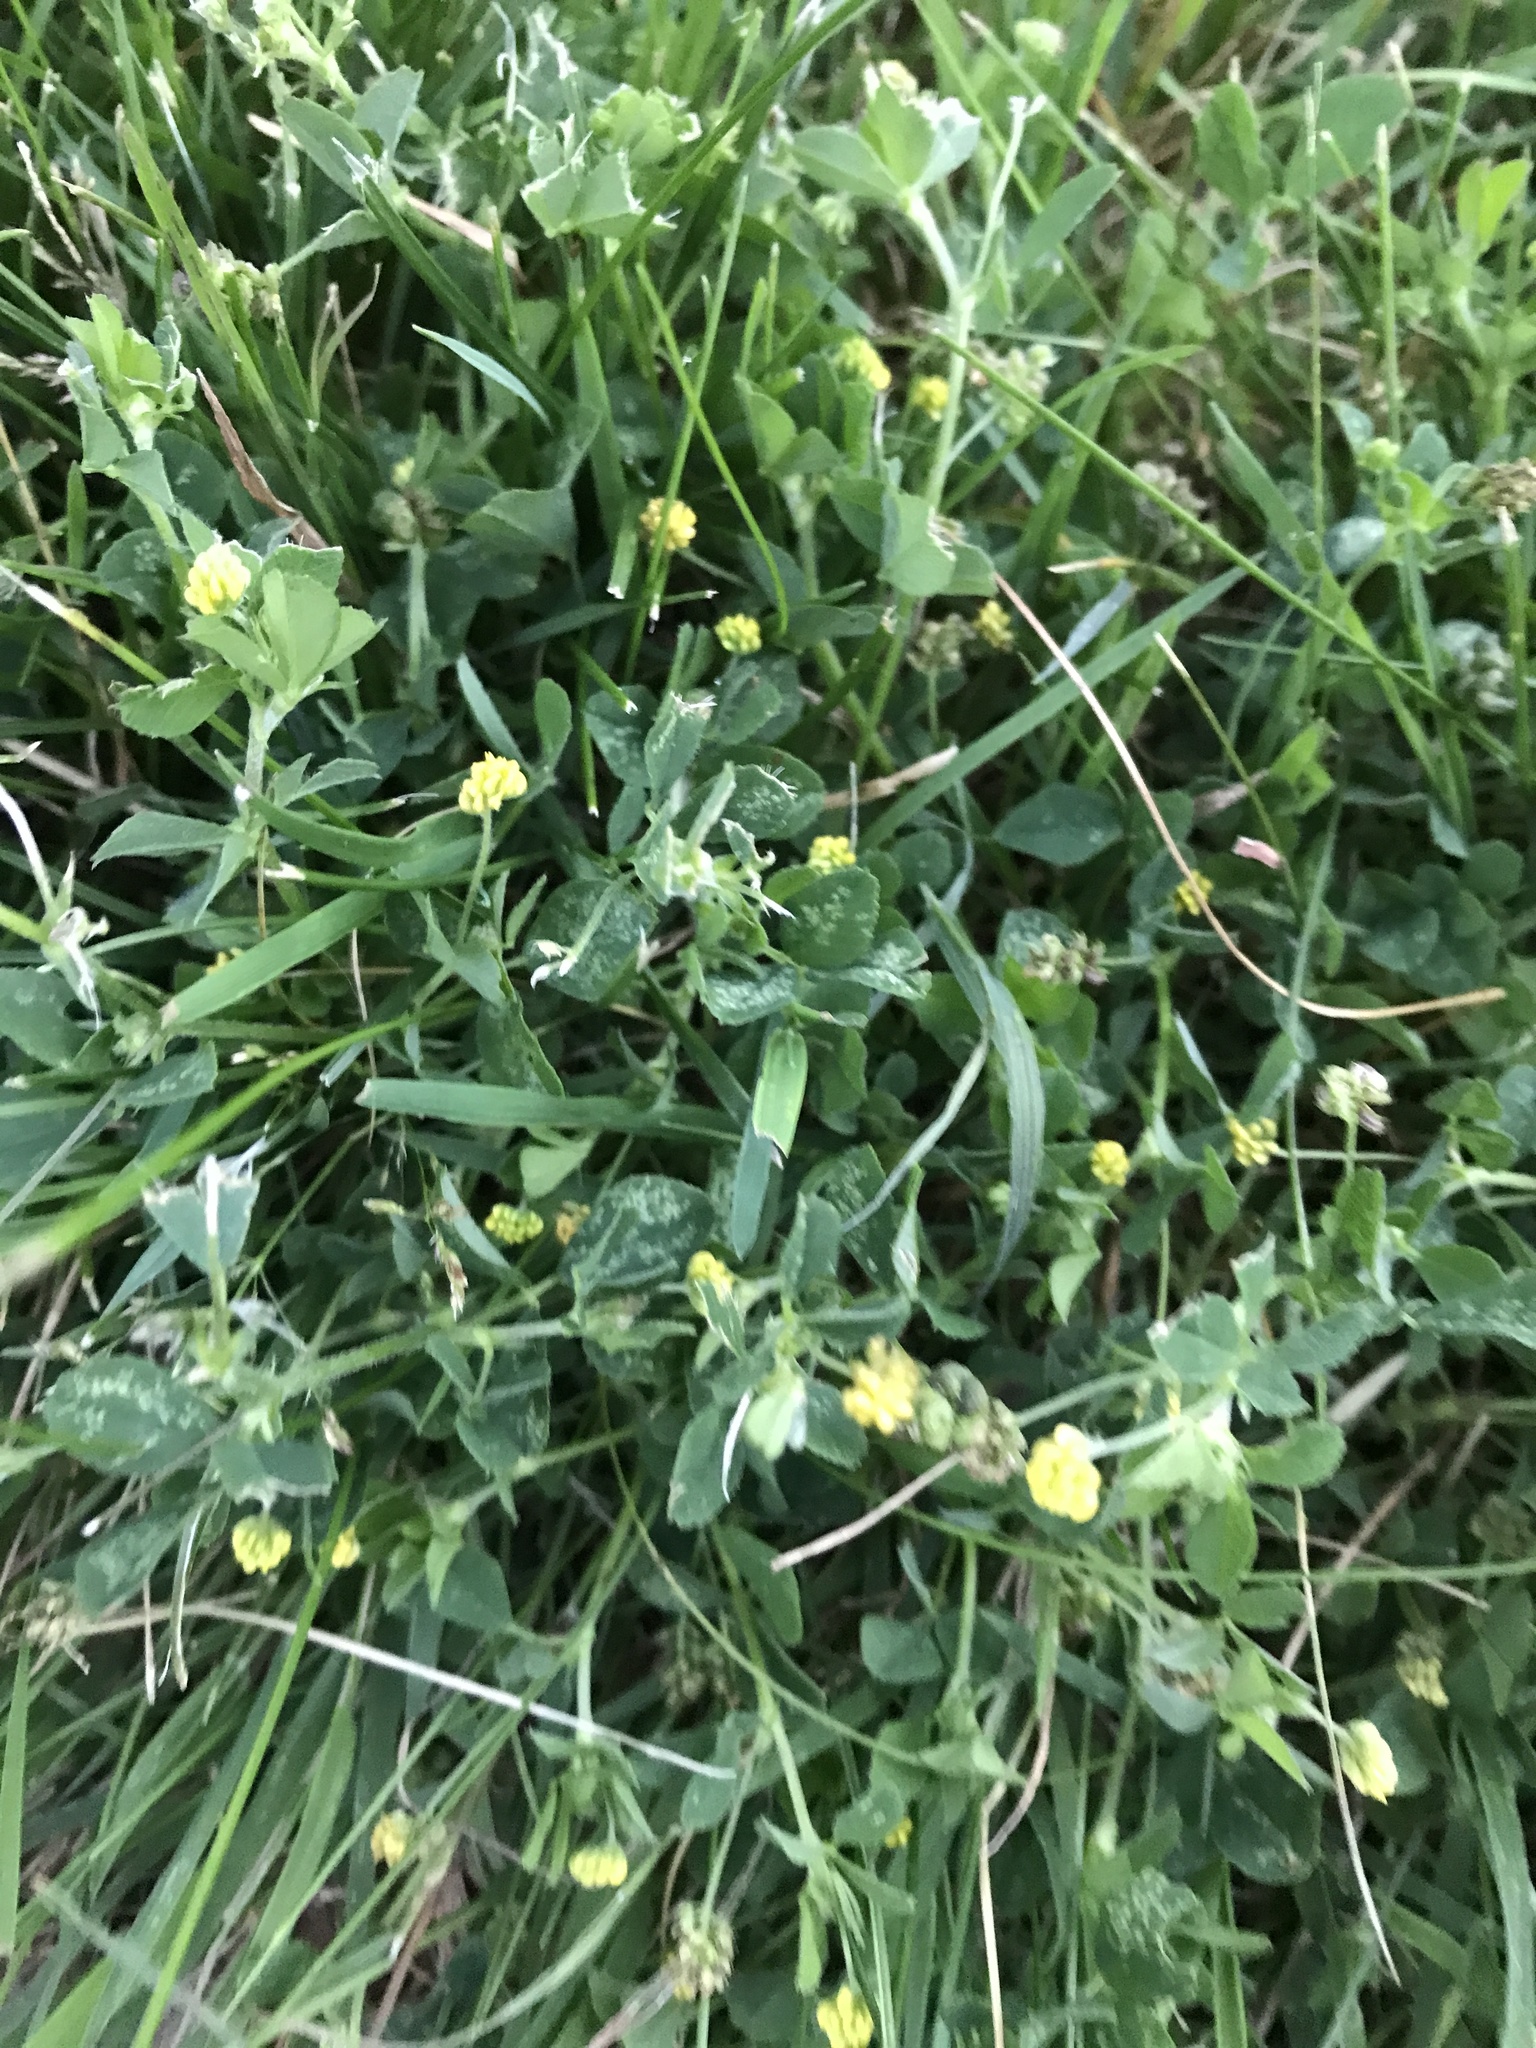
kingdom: Plantae
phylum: Tracheophyta
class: Magnoliopsida
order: Fabales
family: Fabaceae
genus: Medicago
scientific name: Medicago lupulina
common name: Black medick
